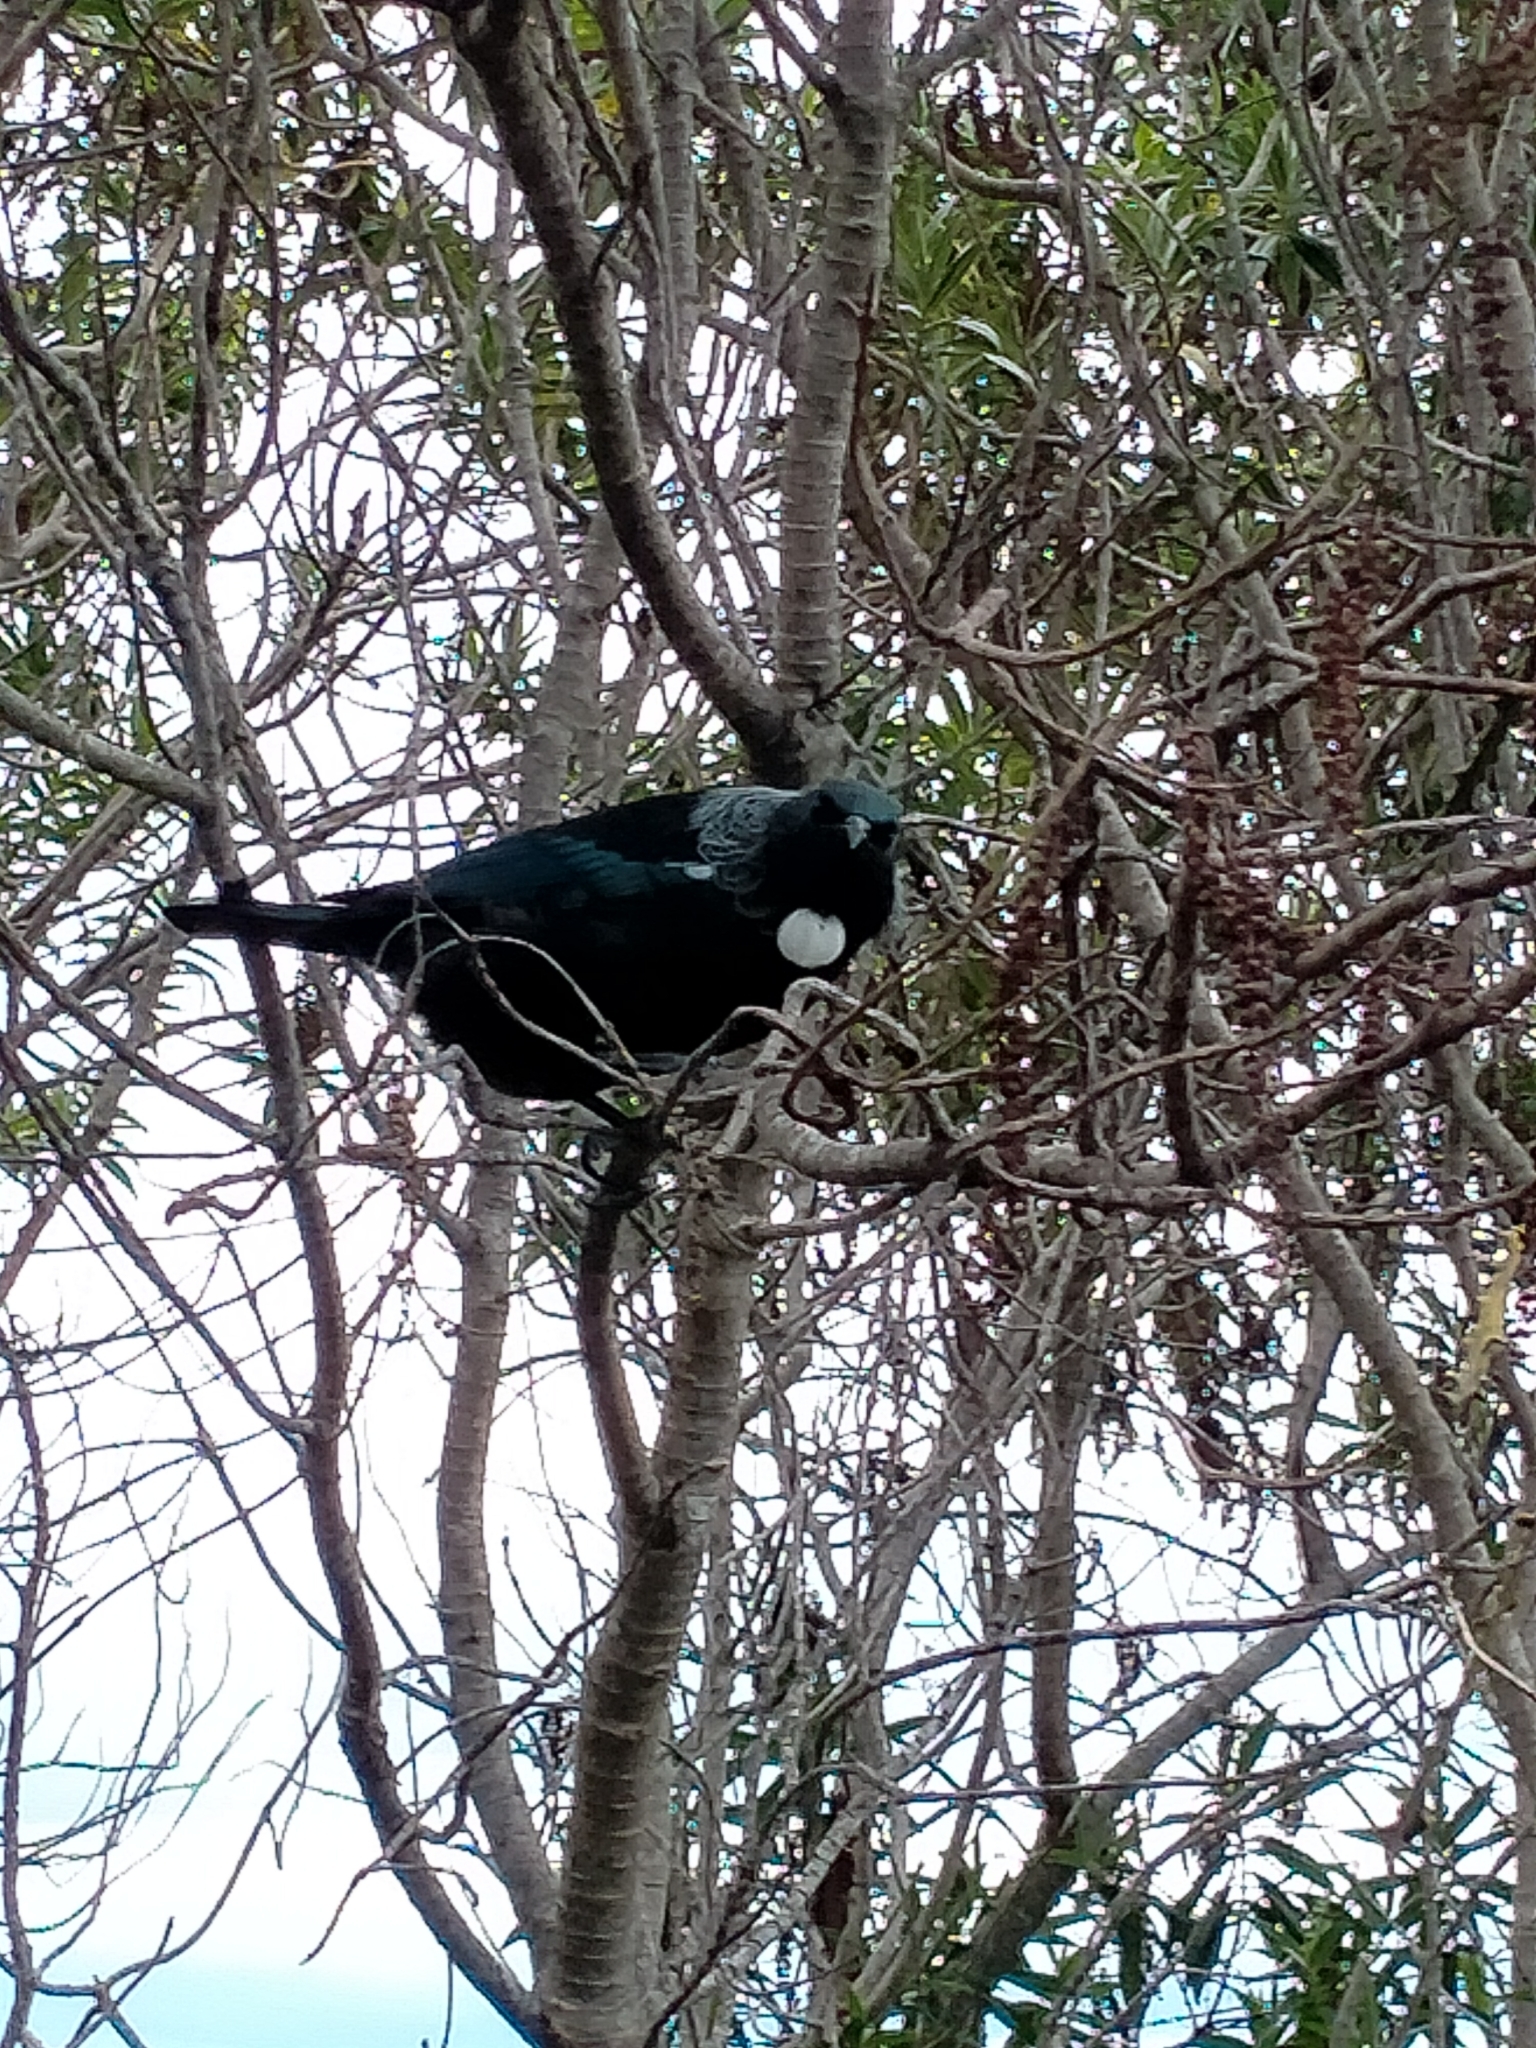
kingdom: Animalia
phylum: Chordata
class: Aves
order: Passeriformes
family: Meliphagidae
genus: Prosthemadera
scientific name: Prosthemadera novaeseelandiae
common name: Tui
